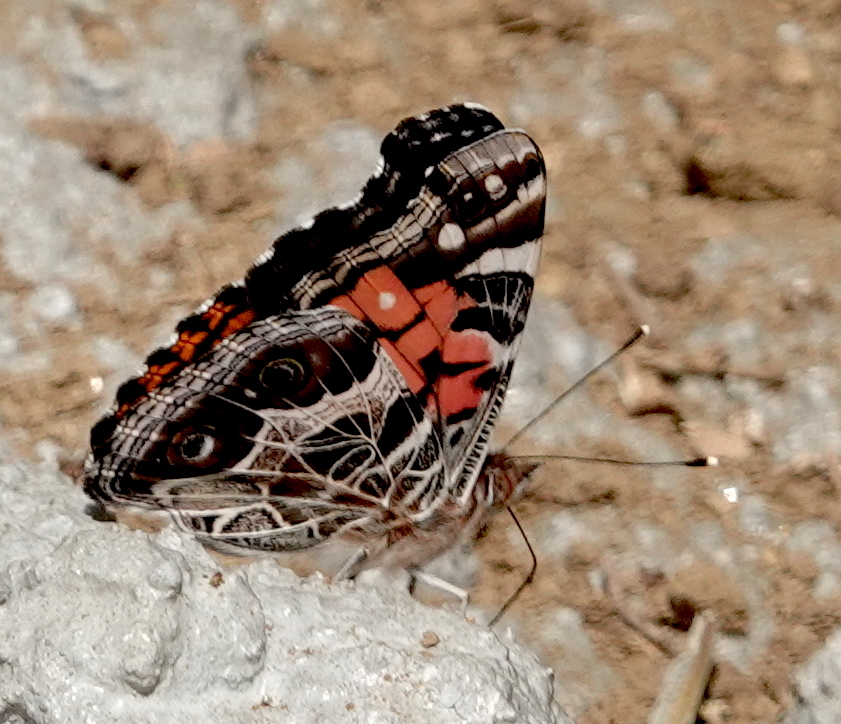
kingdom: Animalia
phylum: Arthropoda
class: Insecta
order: Lepidoptera
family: Nymphalidae
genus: Vanessa
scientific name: Vanessa virginiensis
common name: American lady
